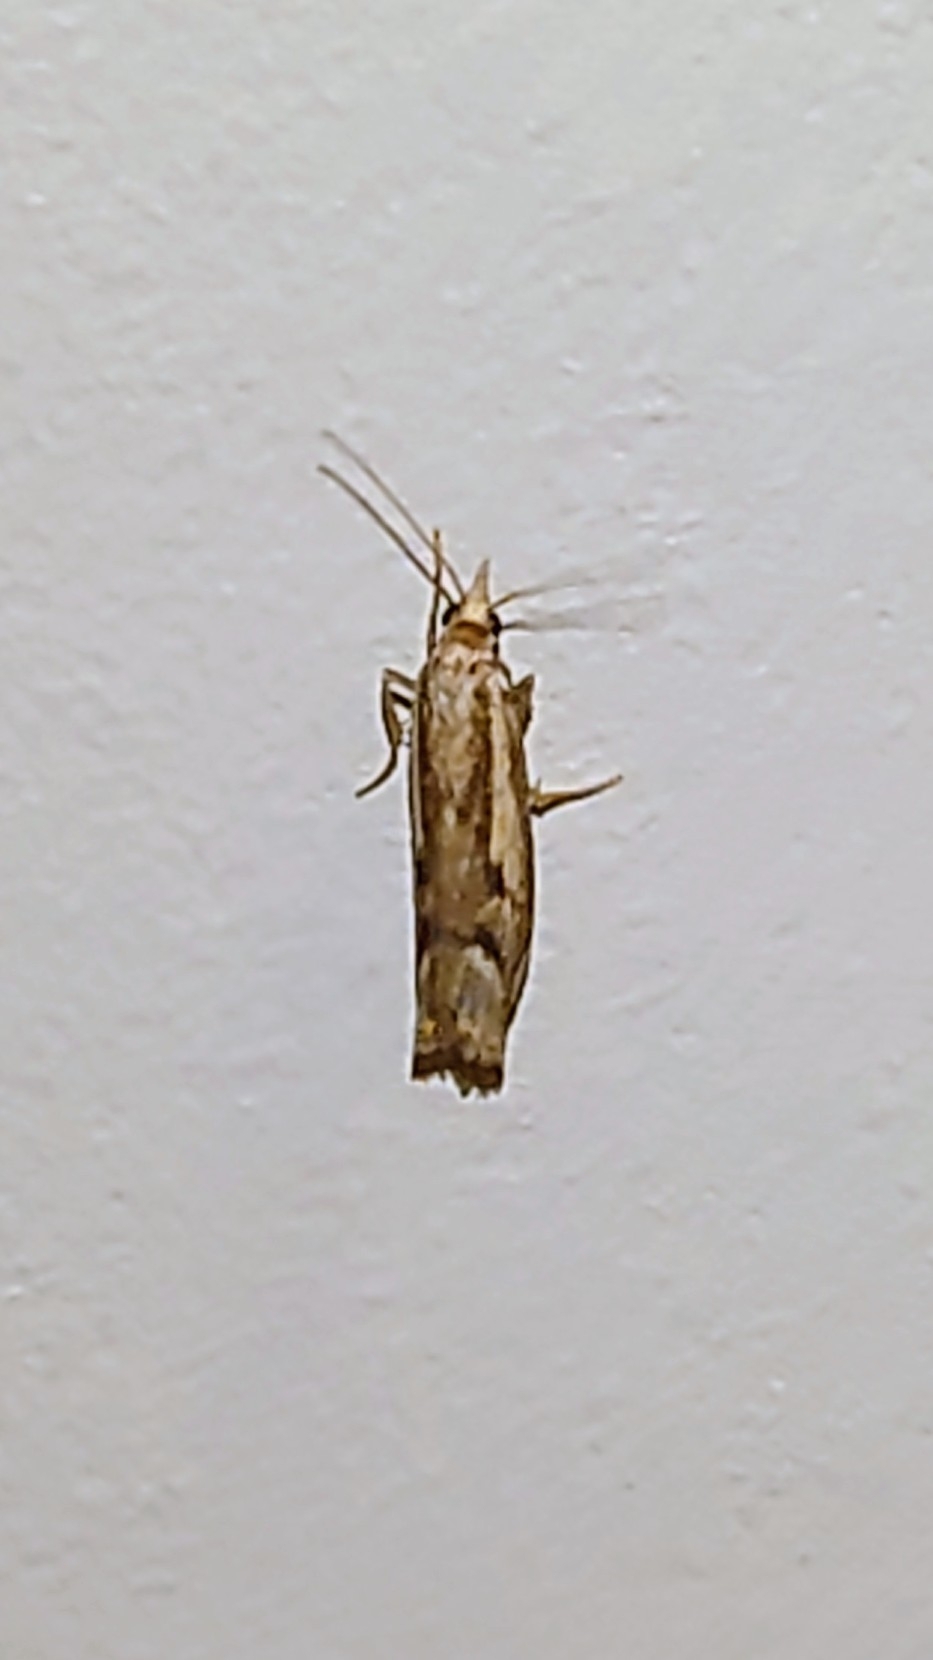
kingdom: Animalia
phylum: Arthropoda
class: Insecta
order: Lepidoptera
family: Crambidae
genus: Agriphila
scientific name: Agriphila geniculea
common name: Elbow-stripe grass-veneer
